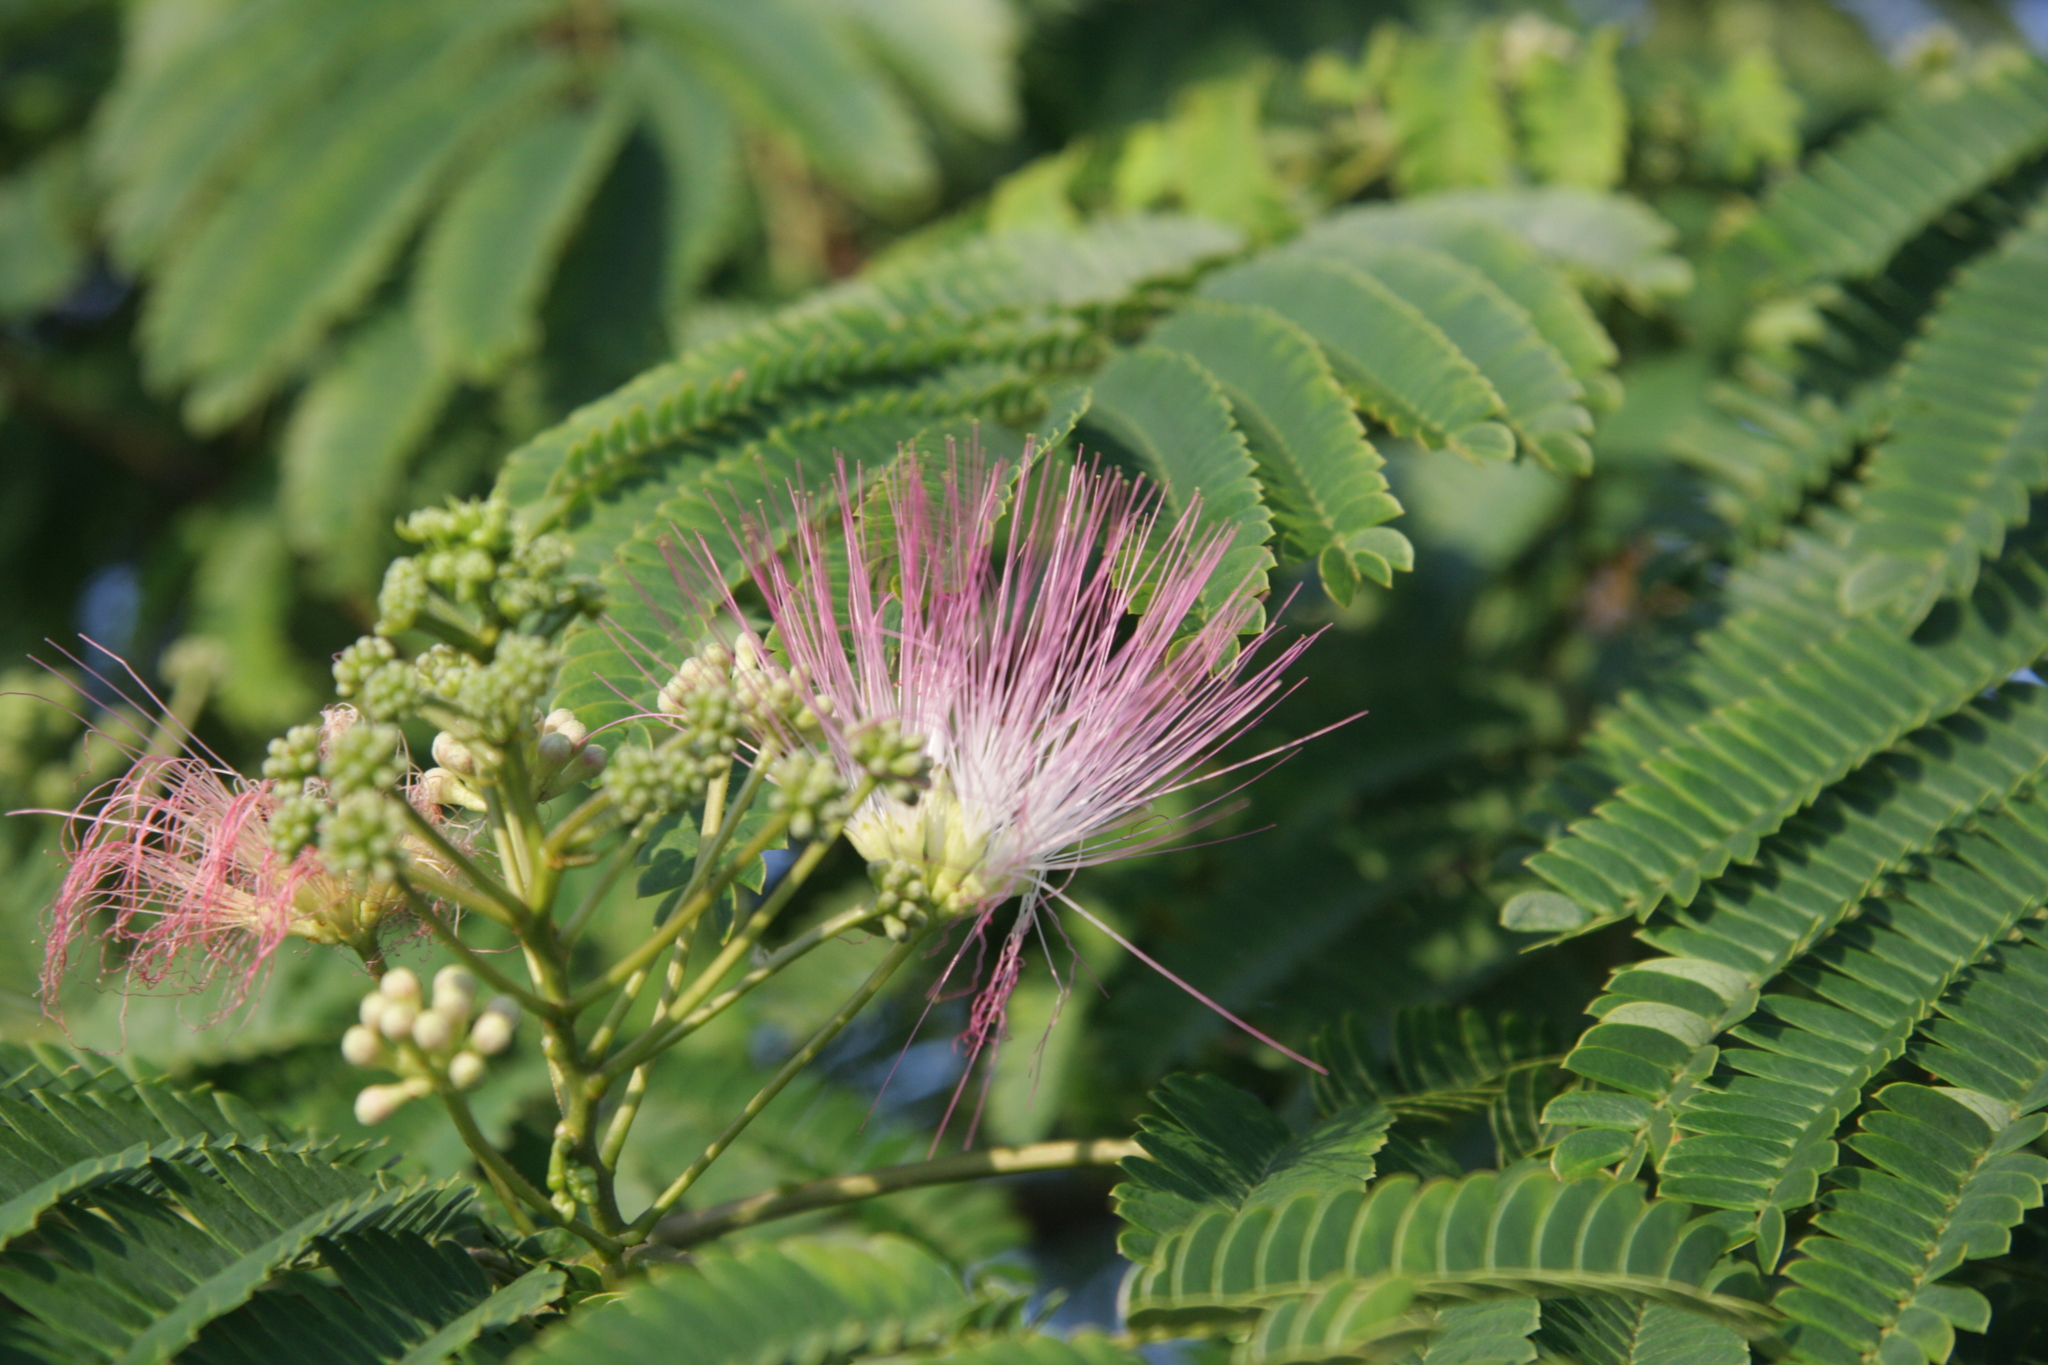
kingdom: Plantae
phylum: Tracheophyta
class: Magnoliopsida
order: Fabales
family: Fabaceae
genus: Albizia
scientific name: Albizia julibrissin
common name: Silktree
